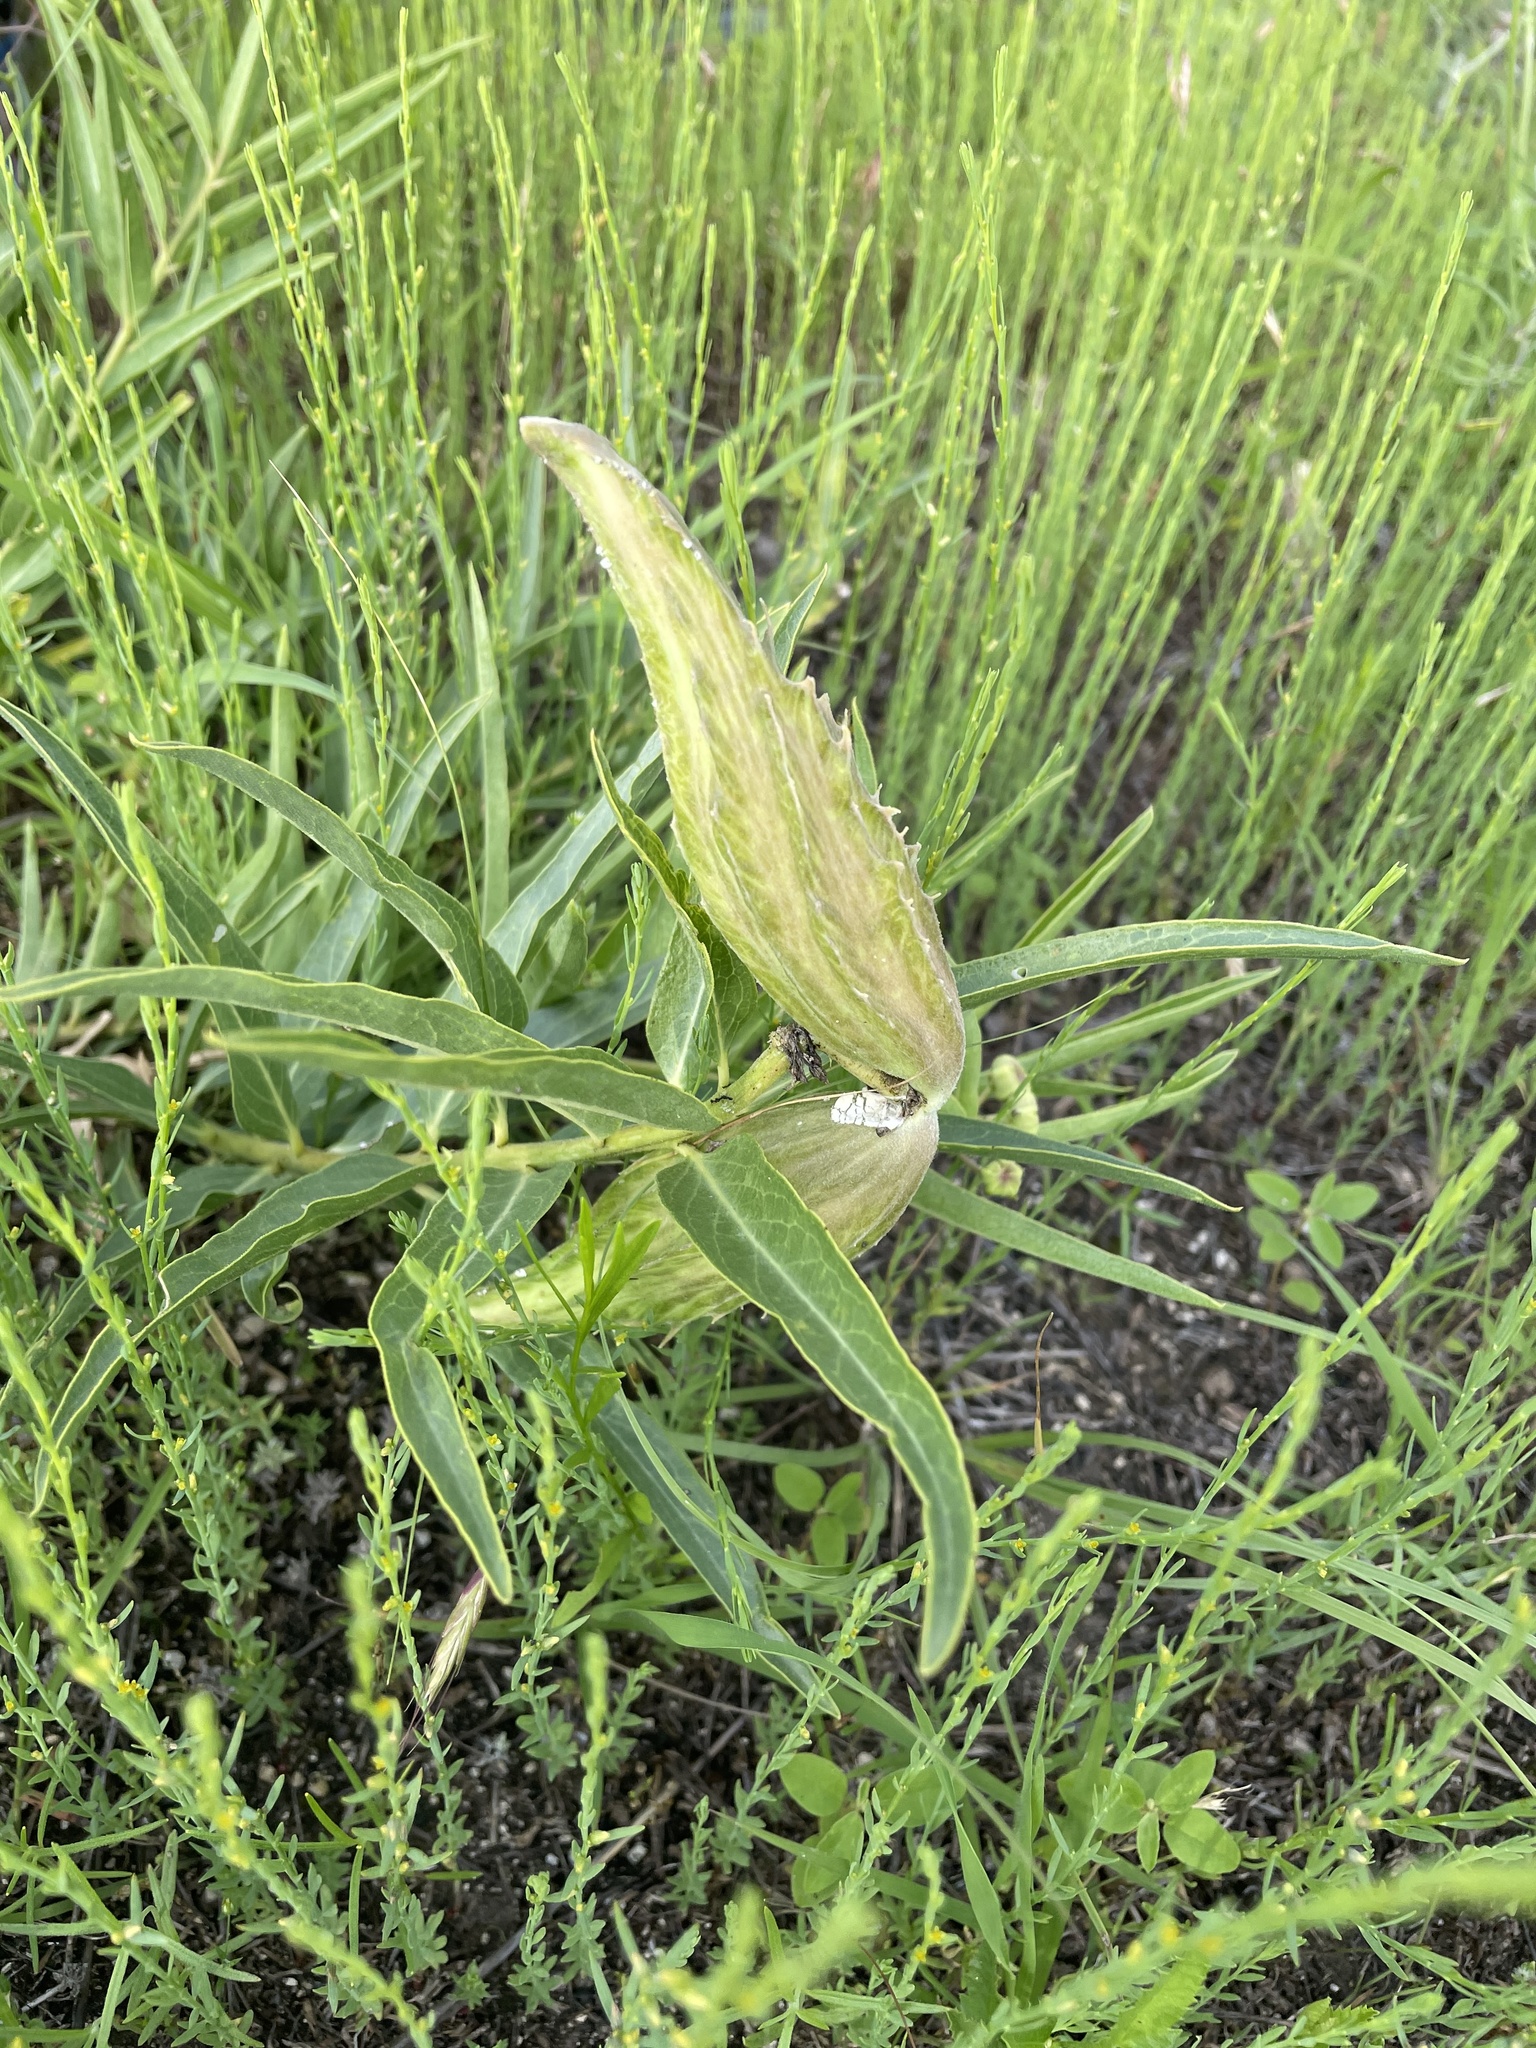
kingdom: Plantae
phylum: Tracheophyta
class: Magnoliopsida
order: Gentianales
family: Apocynaceae
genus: Asclepias
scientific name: Asclepias asperula
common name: Antelope horns
